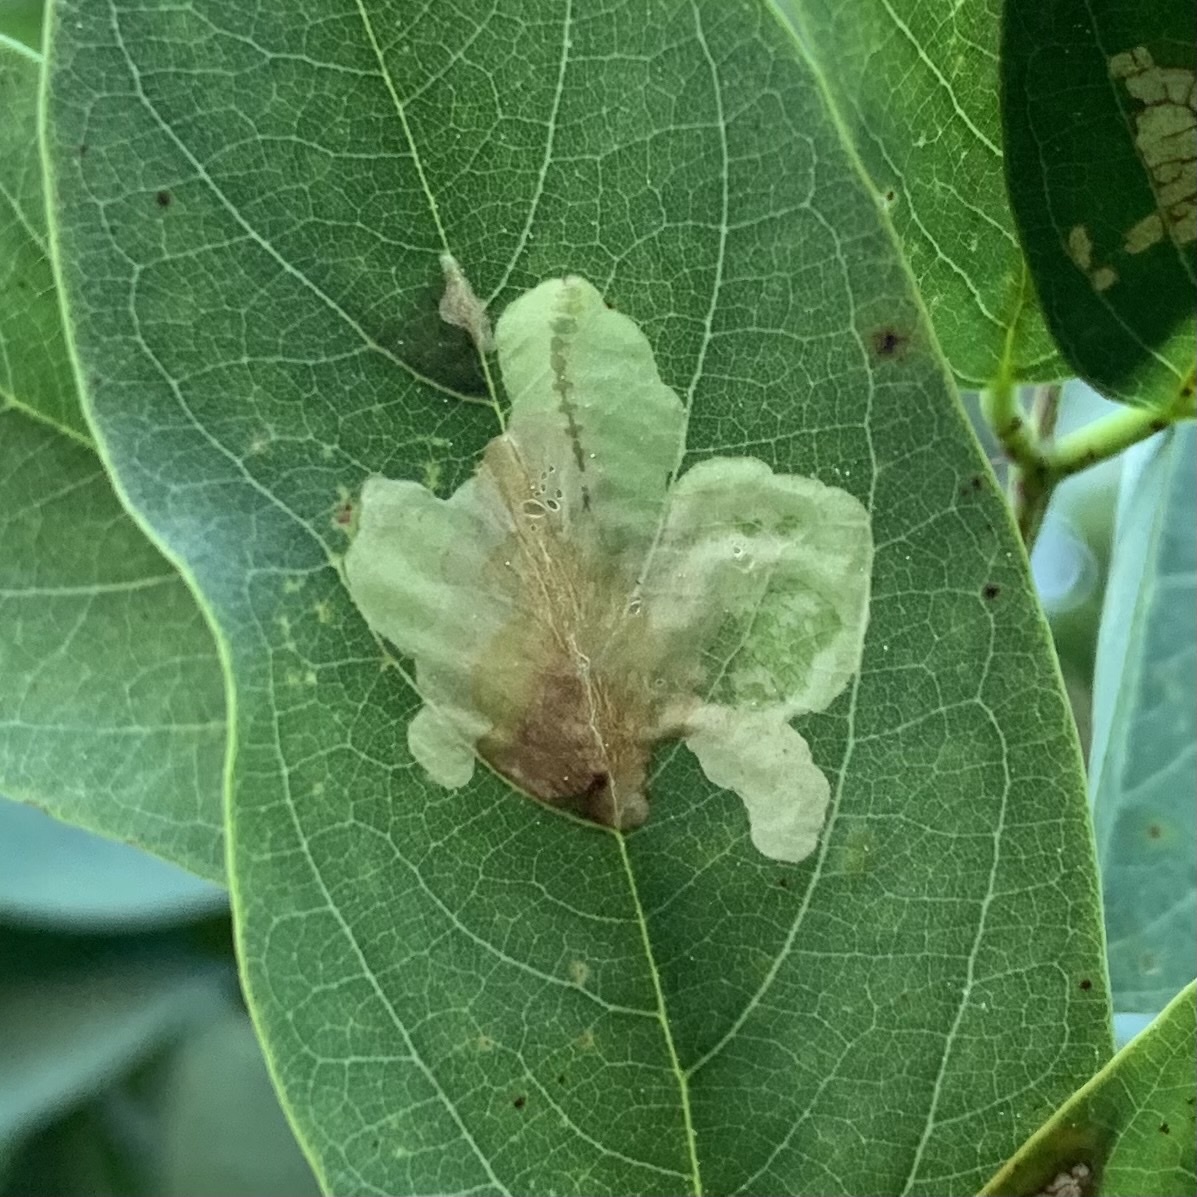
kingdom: Animalia
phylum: Arthropoda
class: Insecta
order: Lepidoptera
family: Gracillariidae
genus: Parectopa
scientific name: Parectopa robiniella
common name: Locust digitate leafminer
